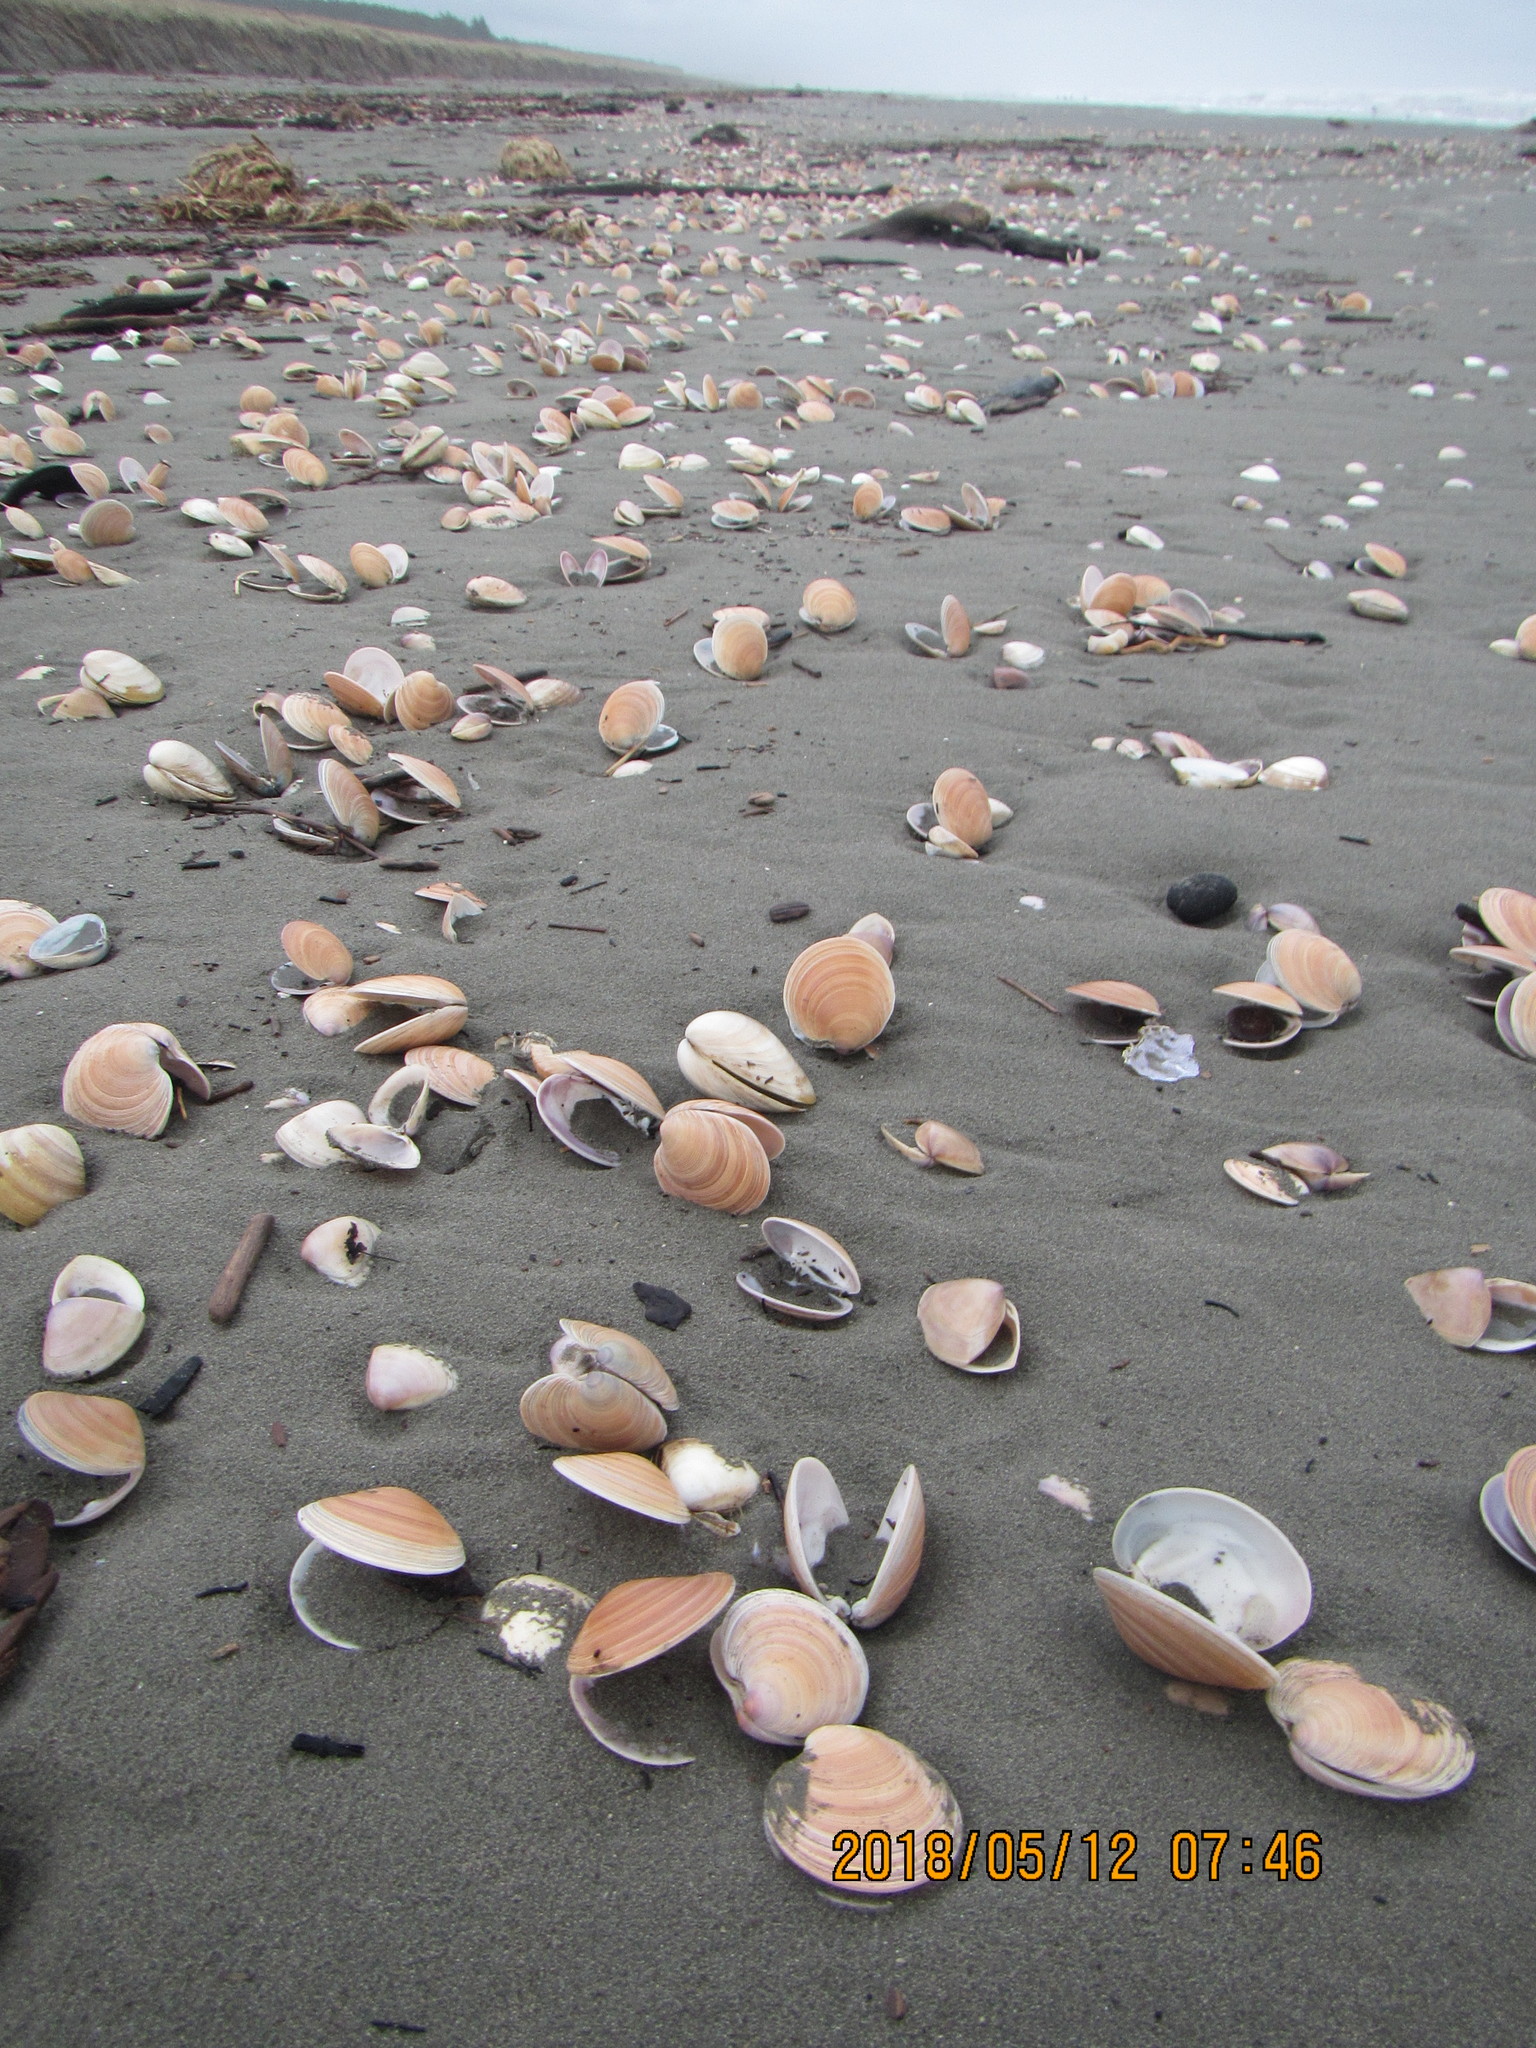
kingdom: Animalia
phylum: Mollusca
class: Bivalvia
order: Venerida
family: Veneridae
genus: Dosinia
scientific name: Dosinia anus
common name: Old-woman dosinia
